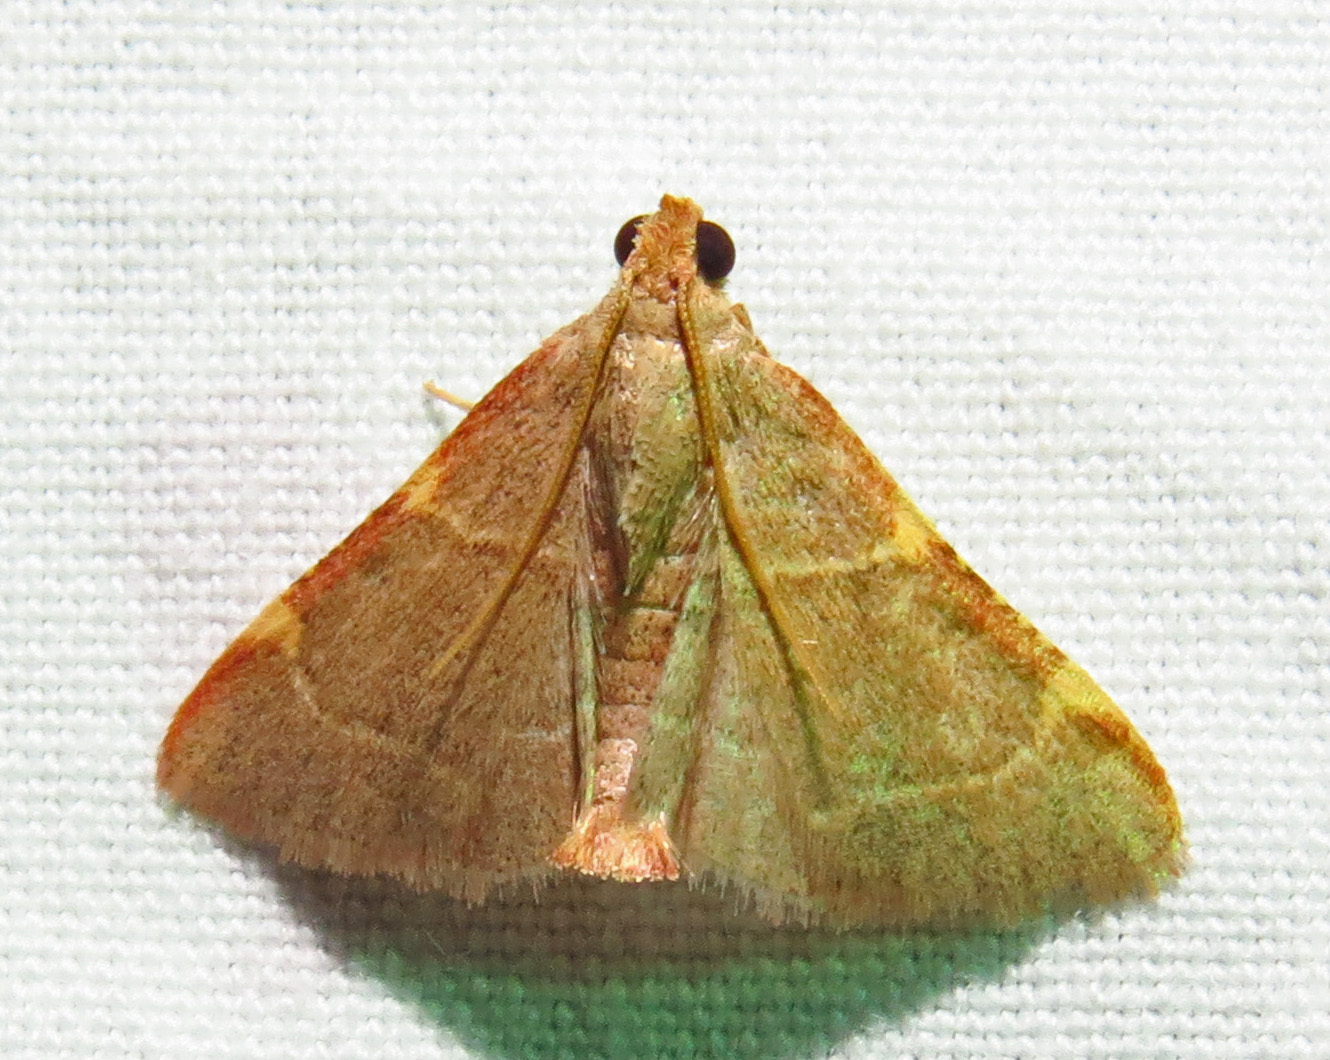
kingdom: Animalia
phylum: Arthropoda
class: Insecta
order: Lepidoptera
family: Pyralidae
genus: Hypsopygia
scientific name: Hypsopygia binodulalis
